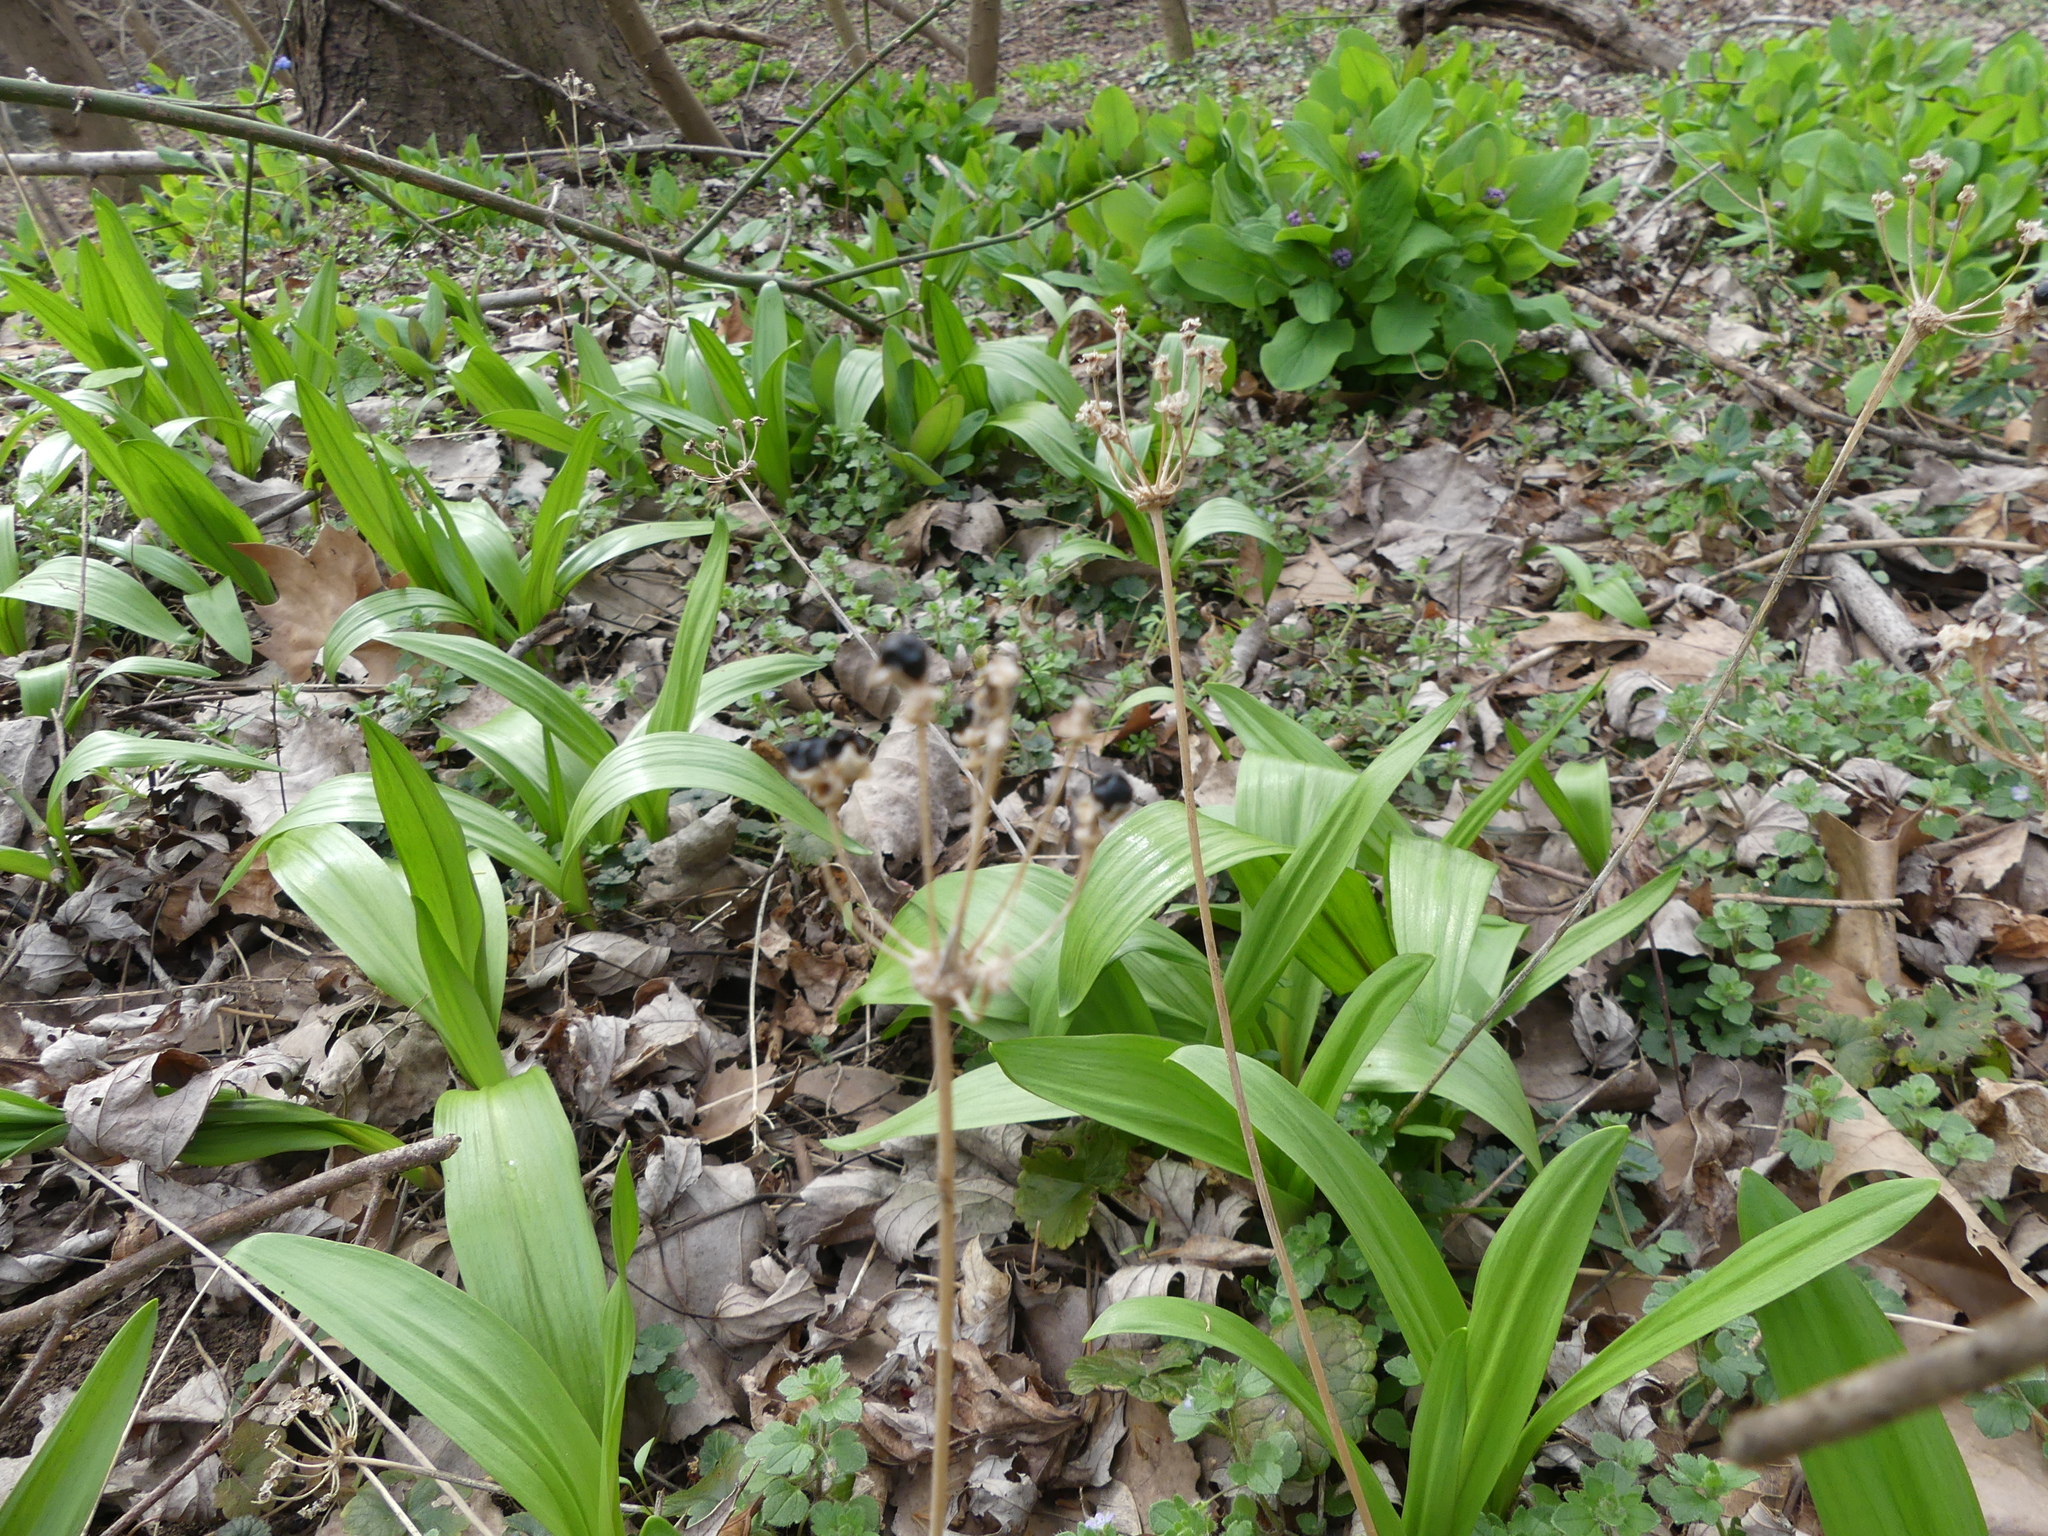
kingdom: Plantae
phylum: Tracheophyta
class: Liliopsida
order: Asparagales
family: Amaryllidaceae
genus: Allium
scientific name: Allium tricoccum
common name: Ramp
